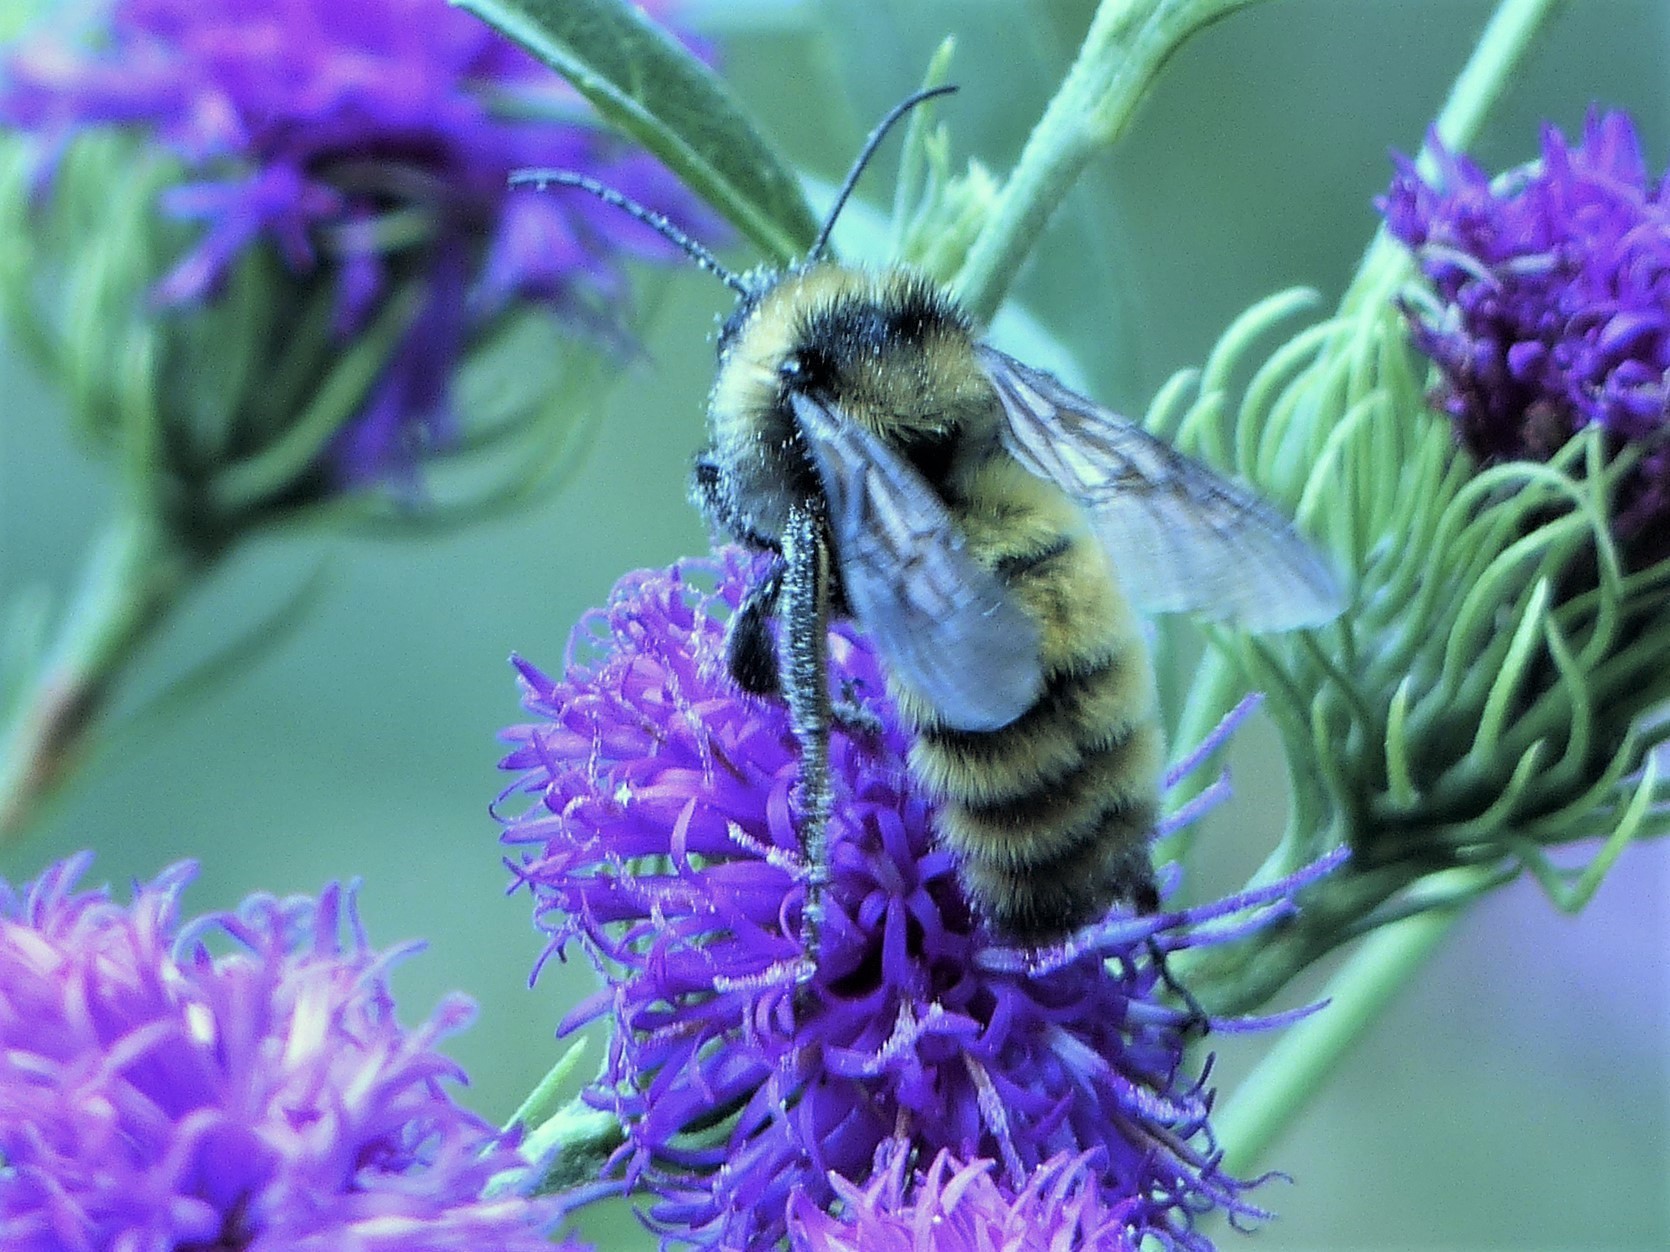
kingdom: Animalia
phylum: Arthropoda
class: Insecta
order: Hymenoptera
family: Apidae
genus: Bombus
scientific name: Bombus pensylvanicus
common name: Bumble bee
